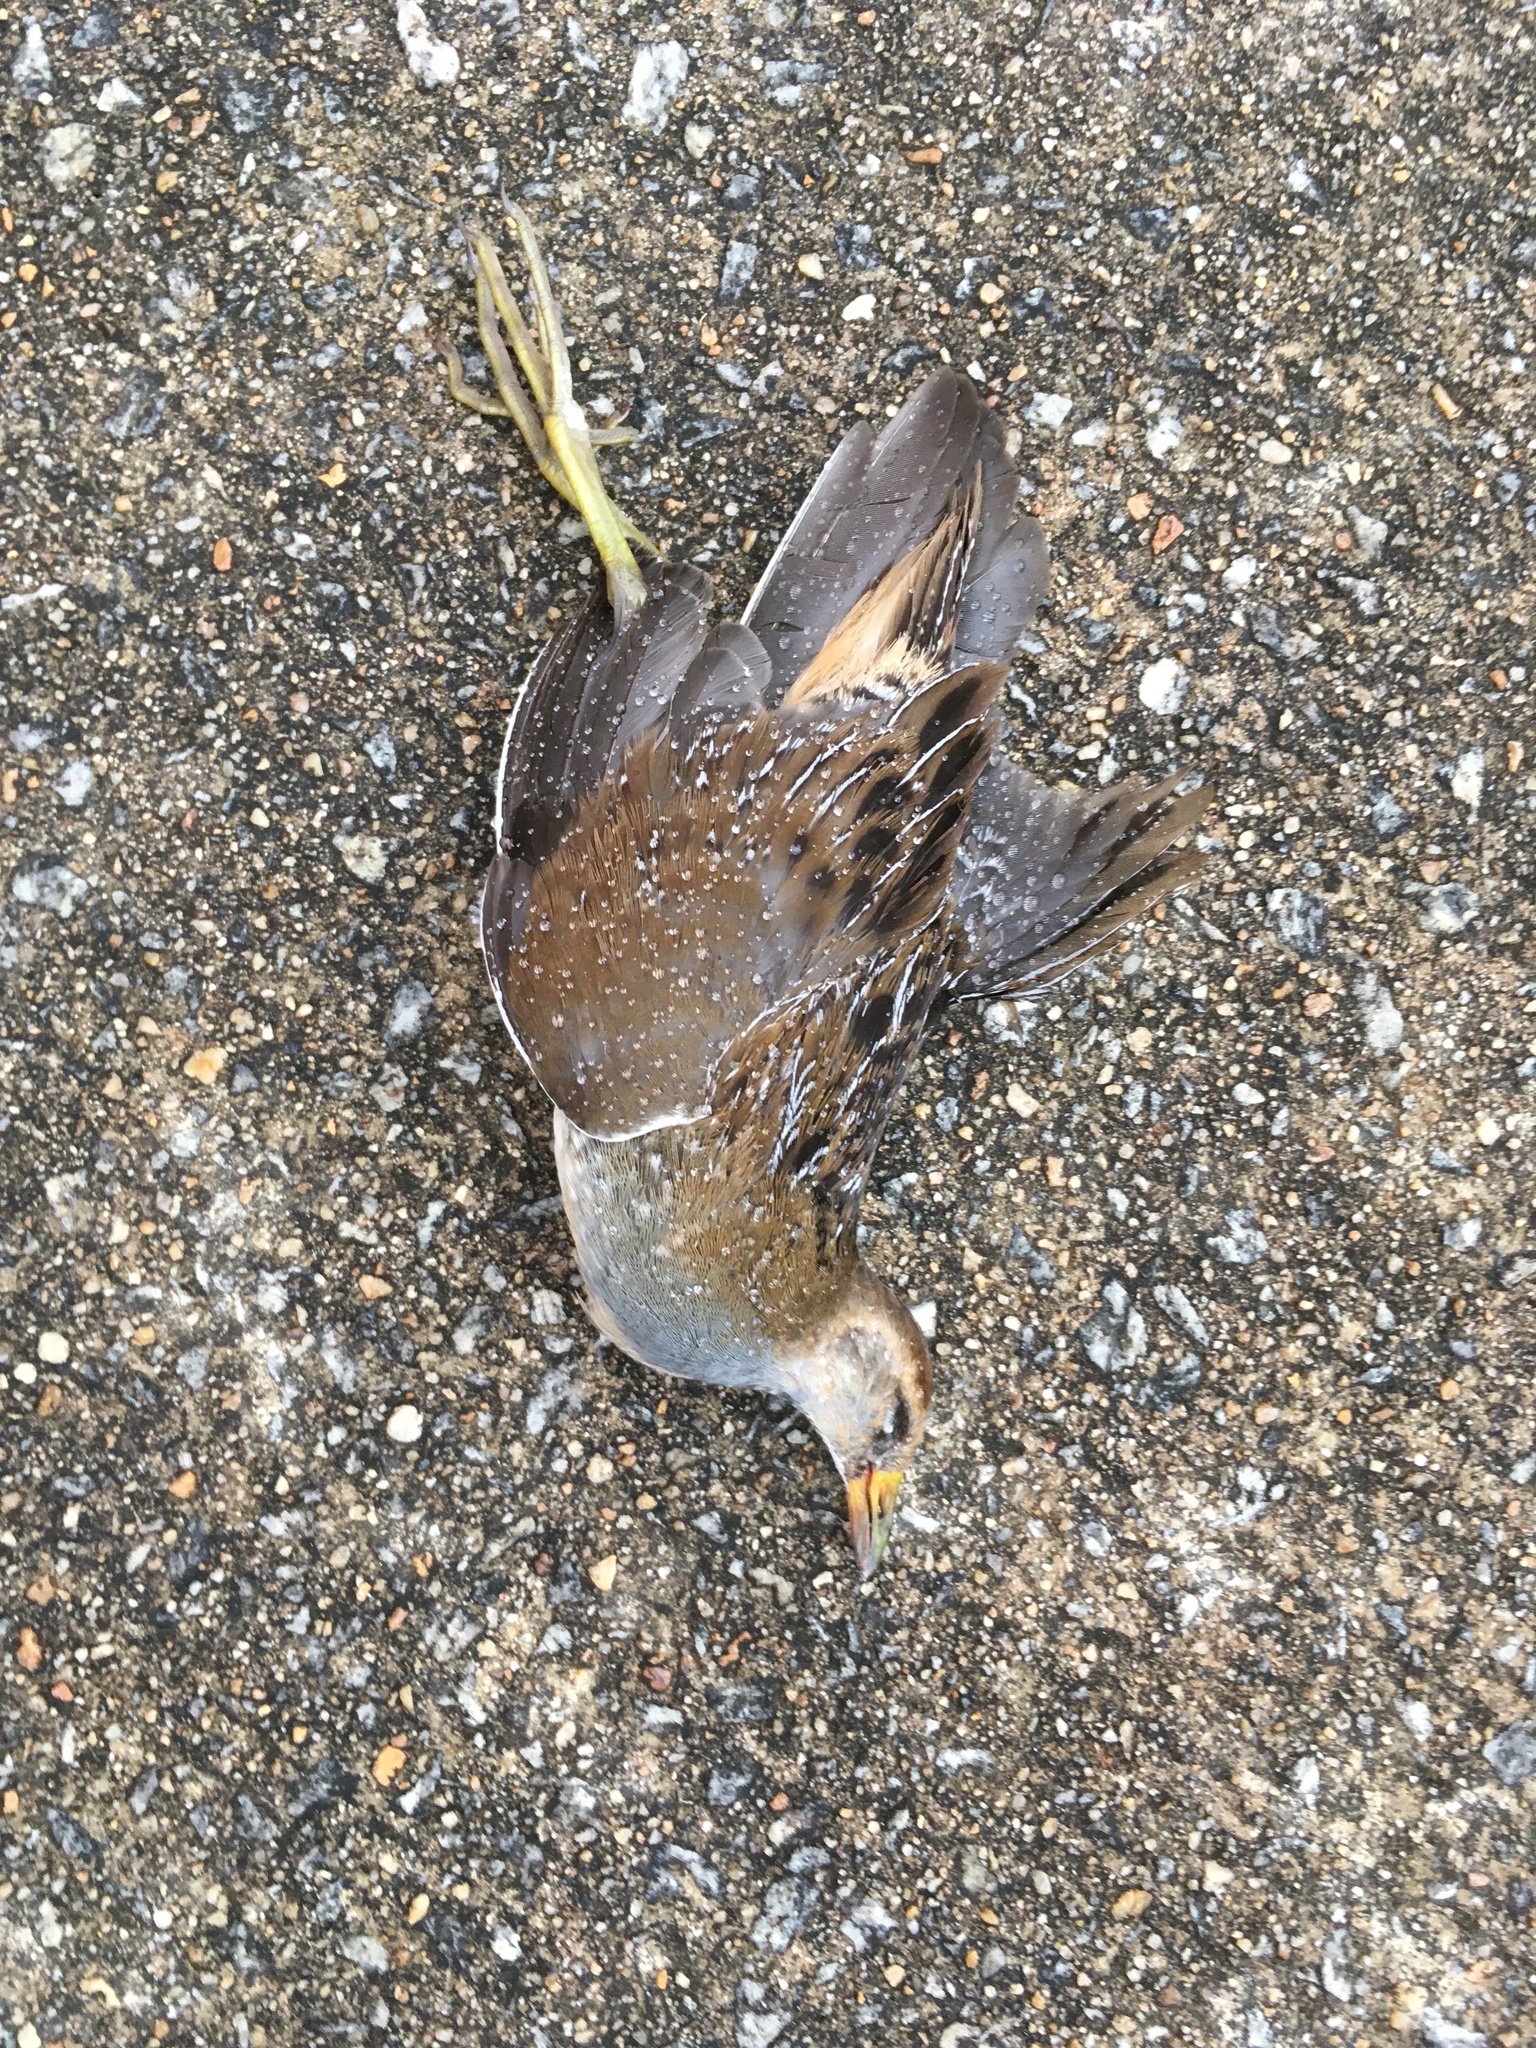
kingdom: Animalia
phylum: Chordata
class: Aves
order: Gruiformes
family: Rallidae
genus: Porzana
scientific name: Porzana carolina
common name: Sora
